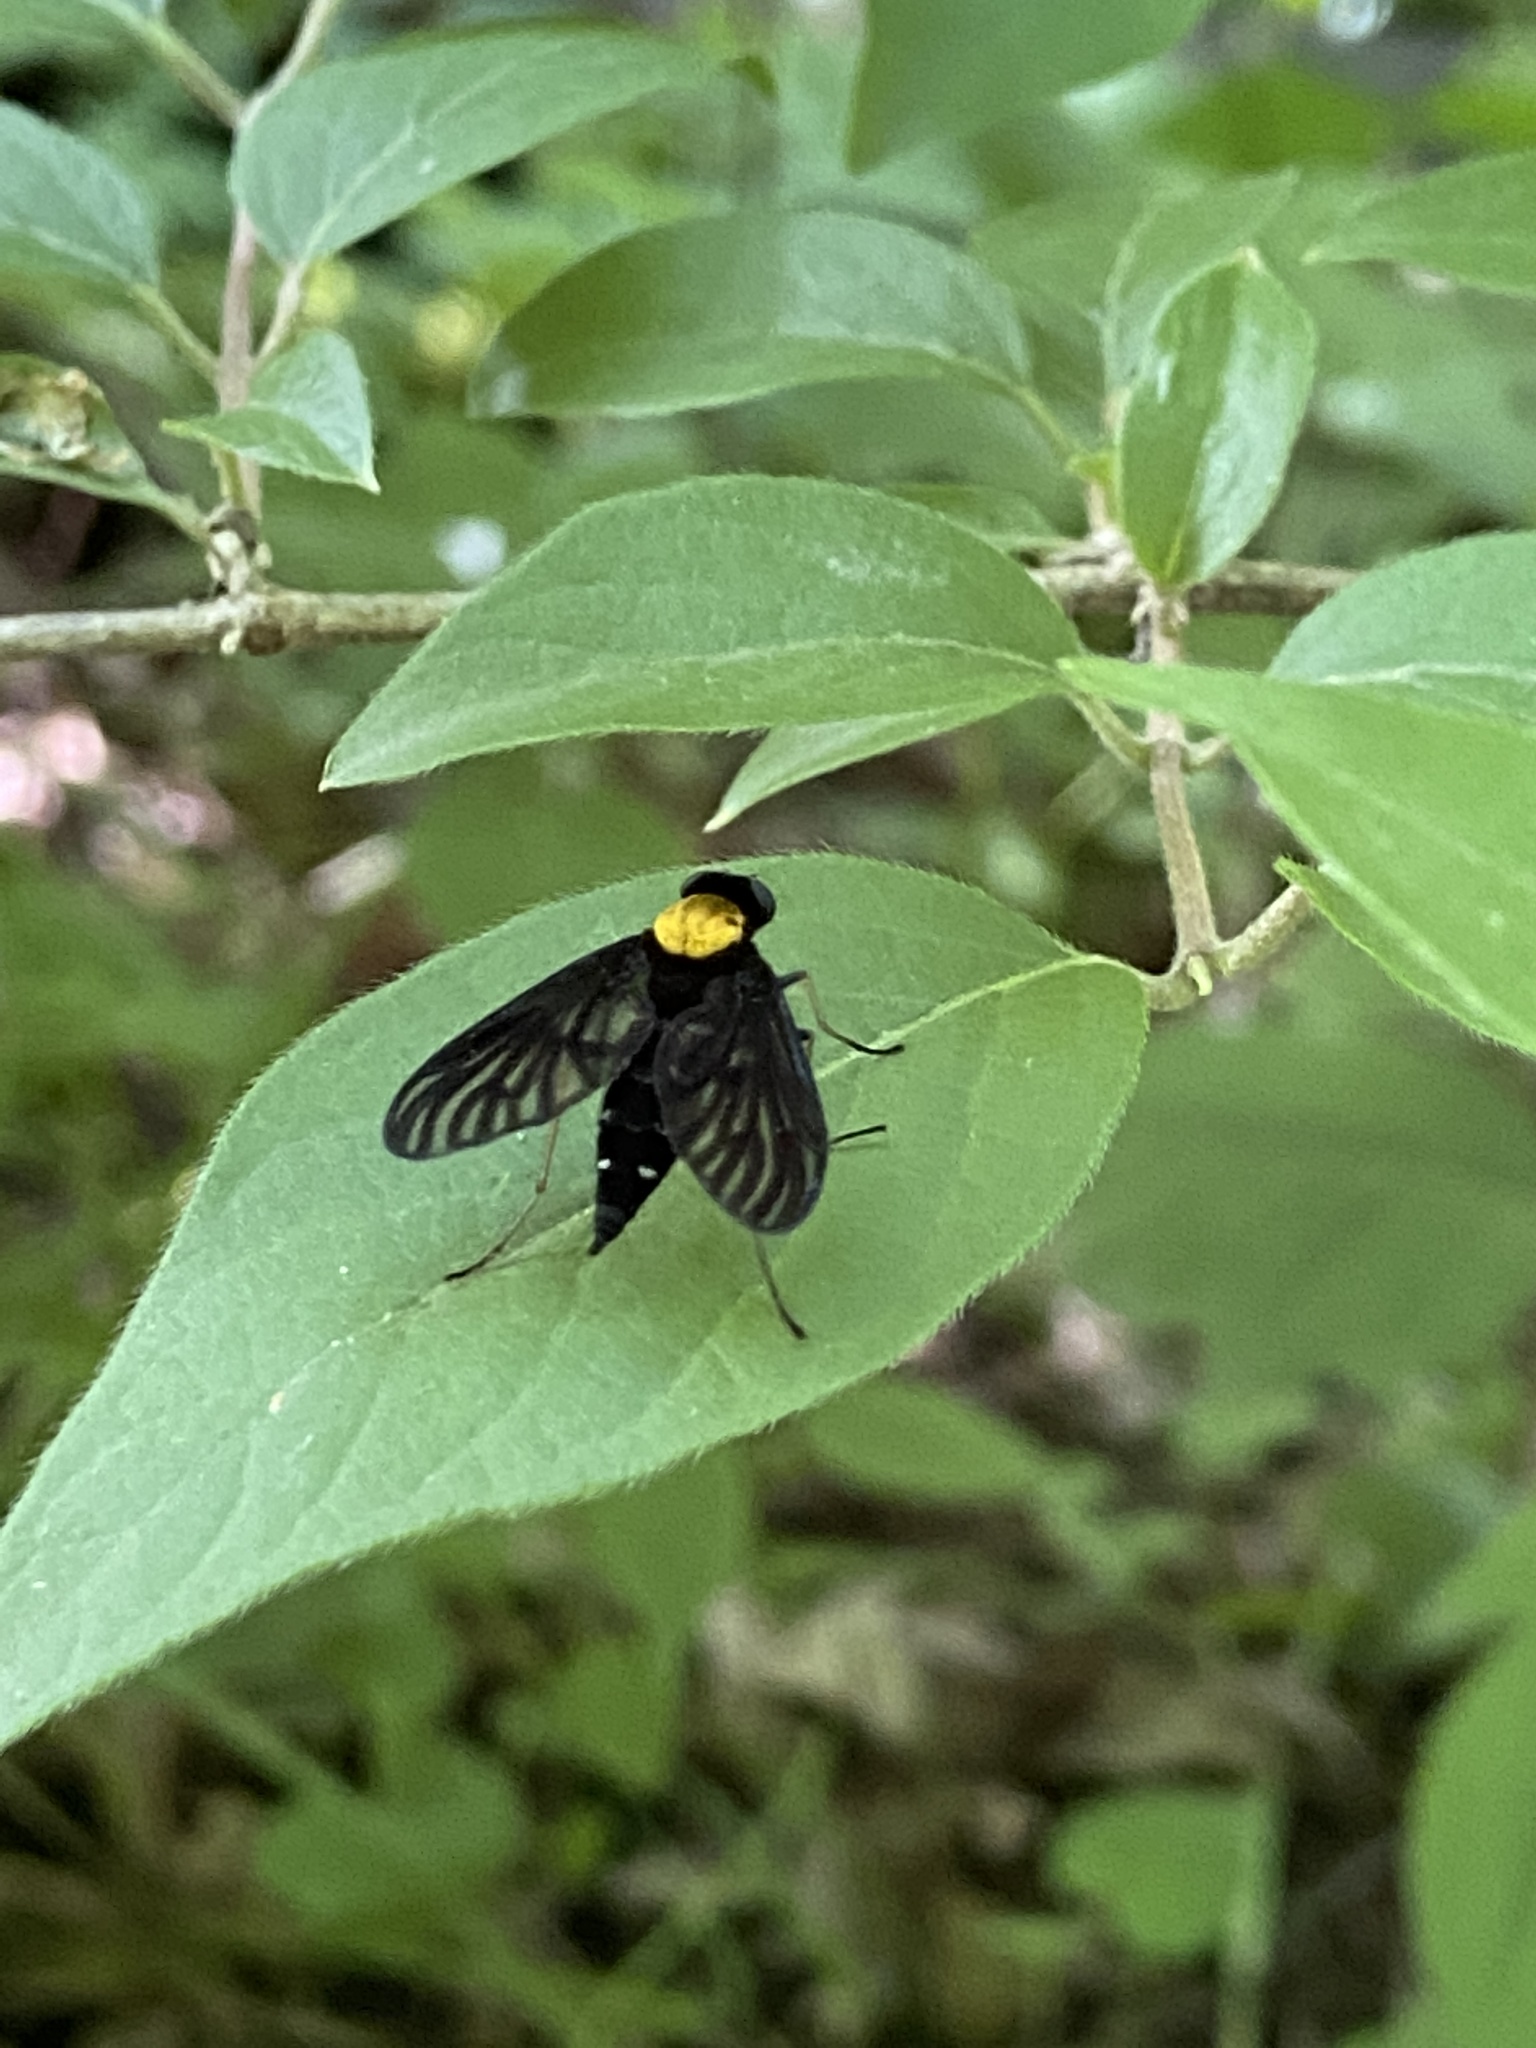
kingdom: Animalia
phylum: Arthropoda
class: Insecta
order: Diptera
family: Rhagionidae
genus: Chrysopilus
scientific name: Chrysopilus thoracicus
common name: Golden-backed snipe fly
